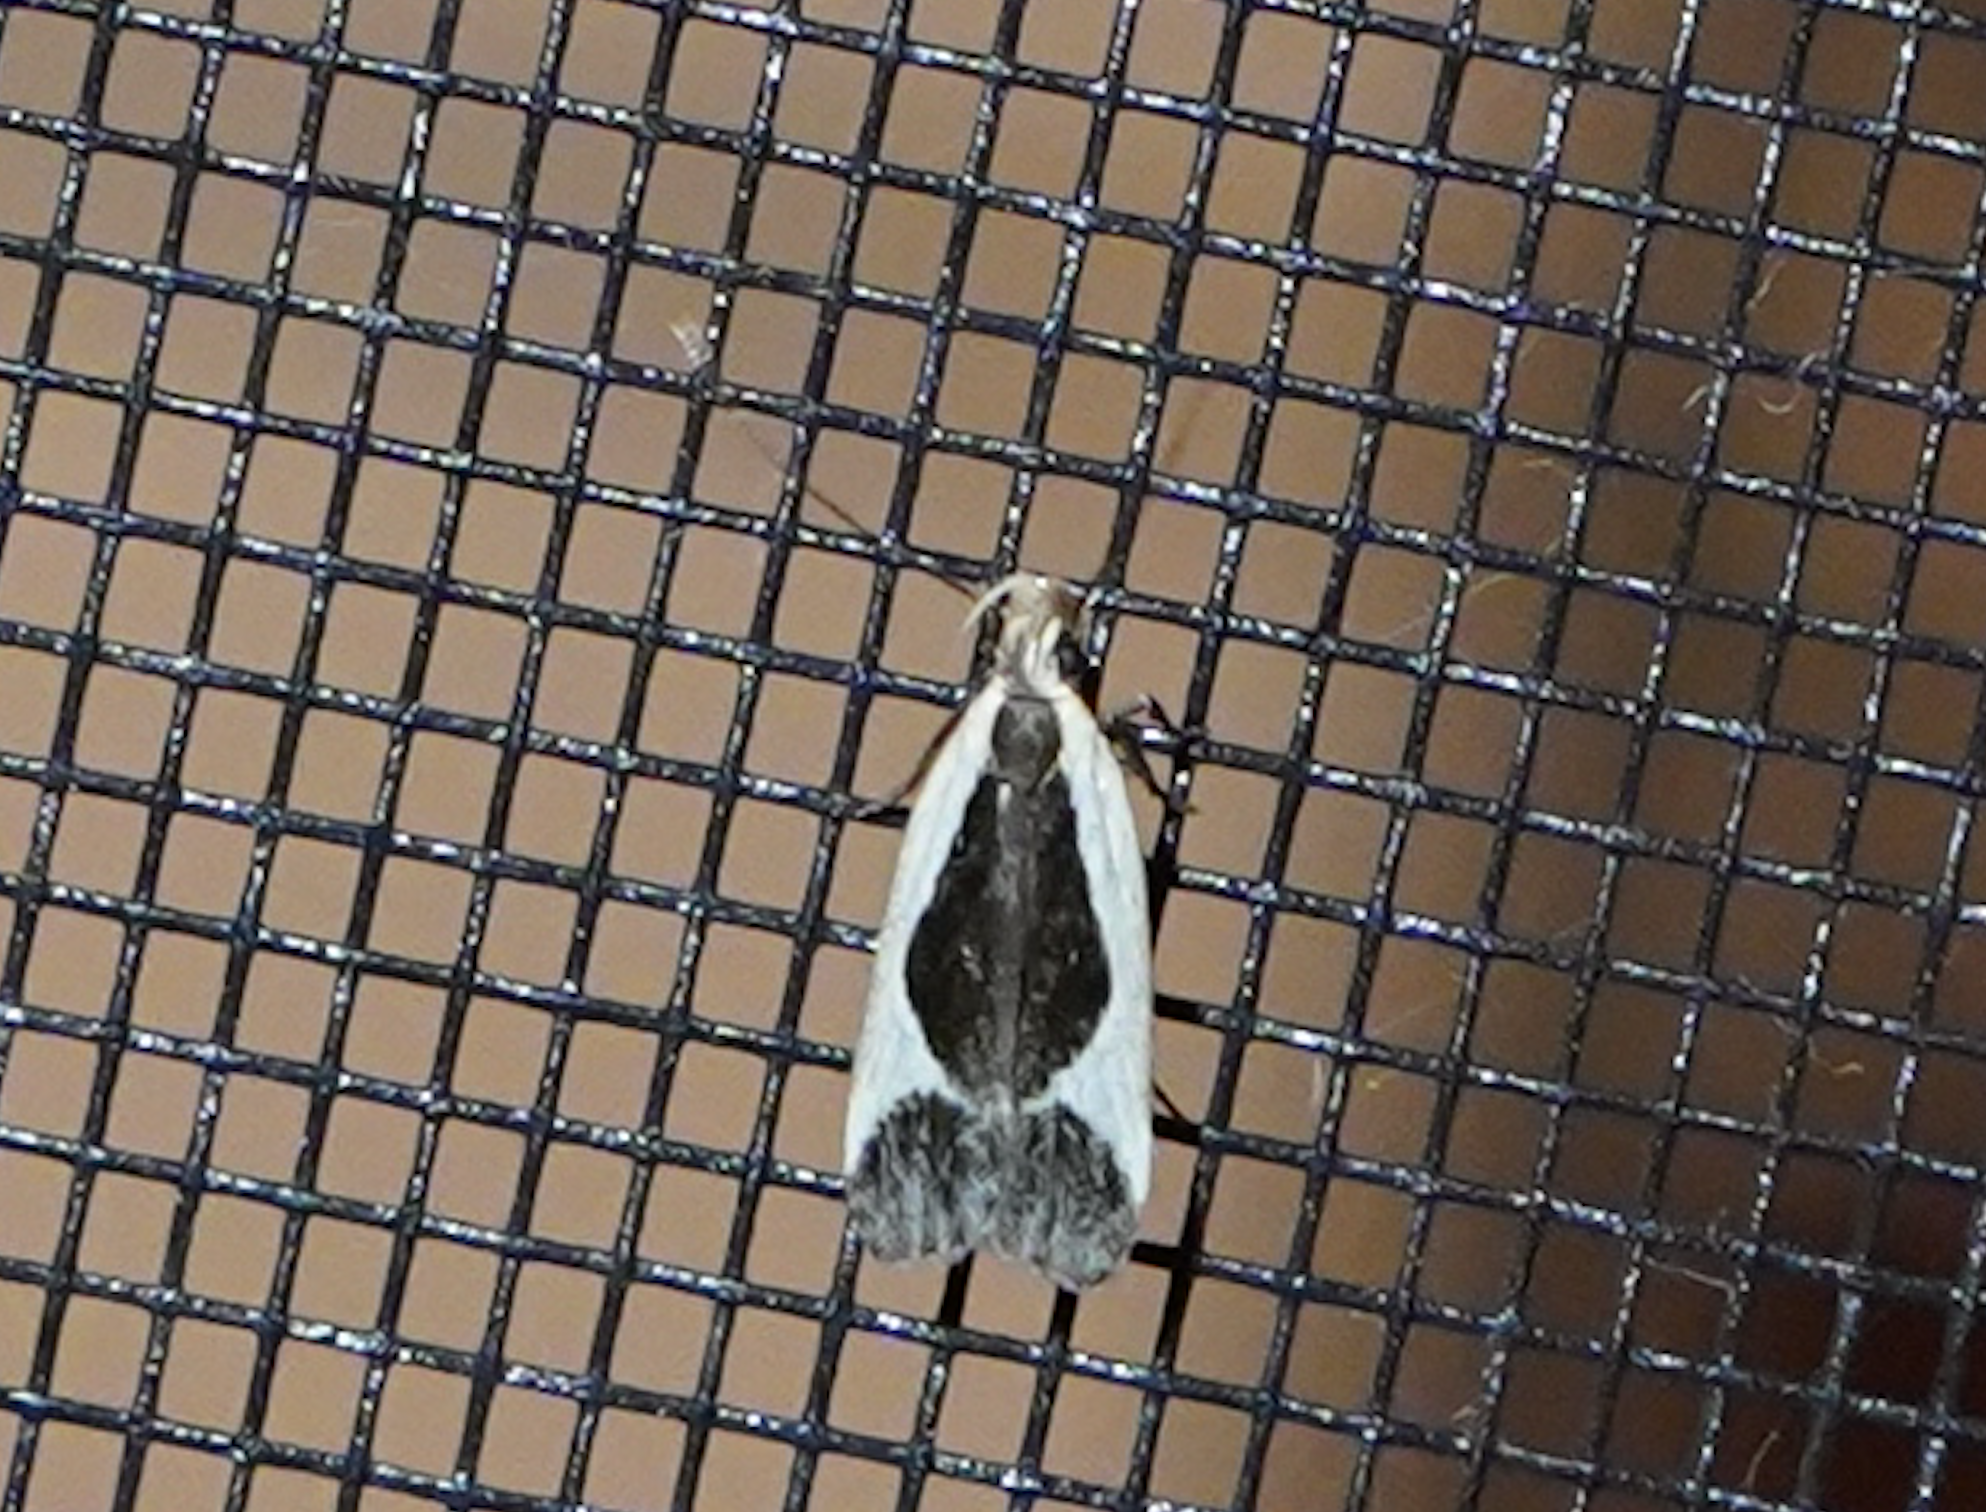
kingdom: Animalia
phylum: Arthropoda
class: Insecta
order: Lepidoptera
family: Gelechiidae
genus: Dichomeris
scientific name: Dichomeris flavocostella
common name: Cream-edged dichomeris moth
